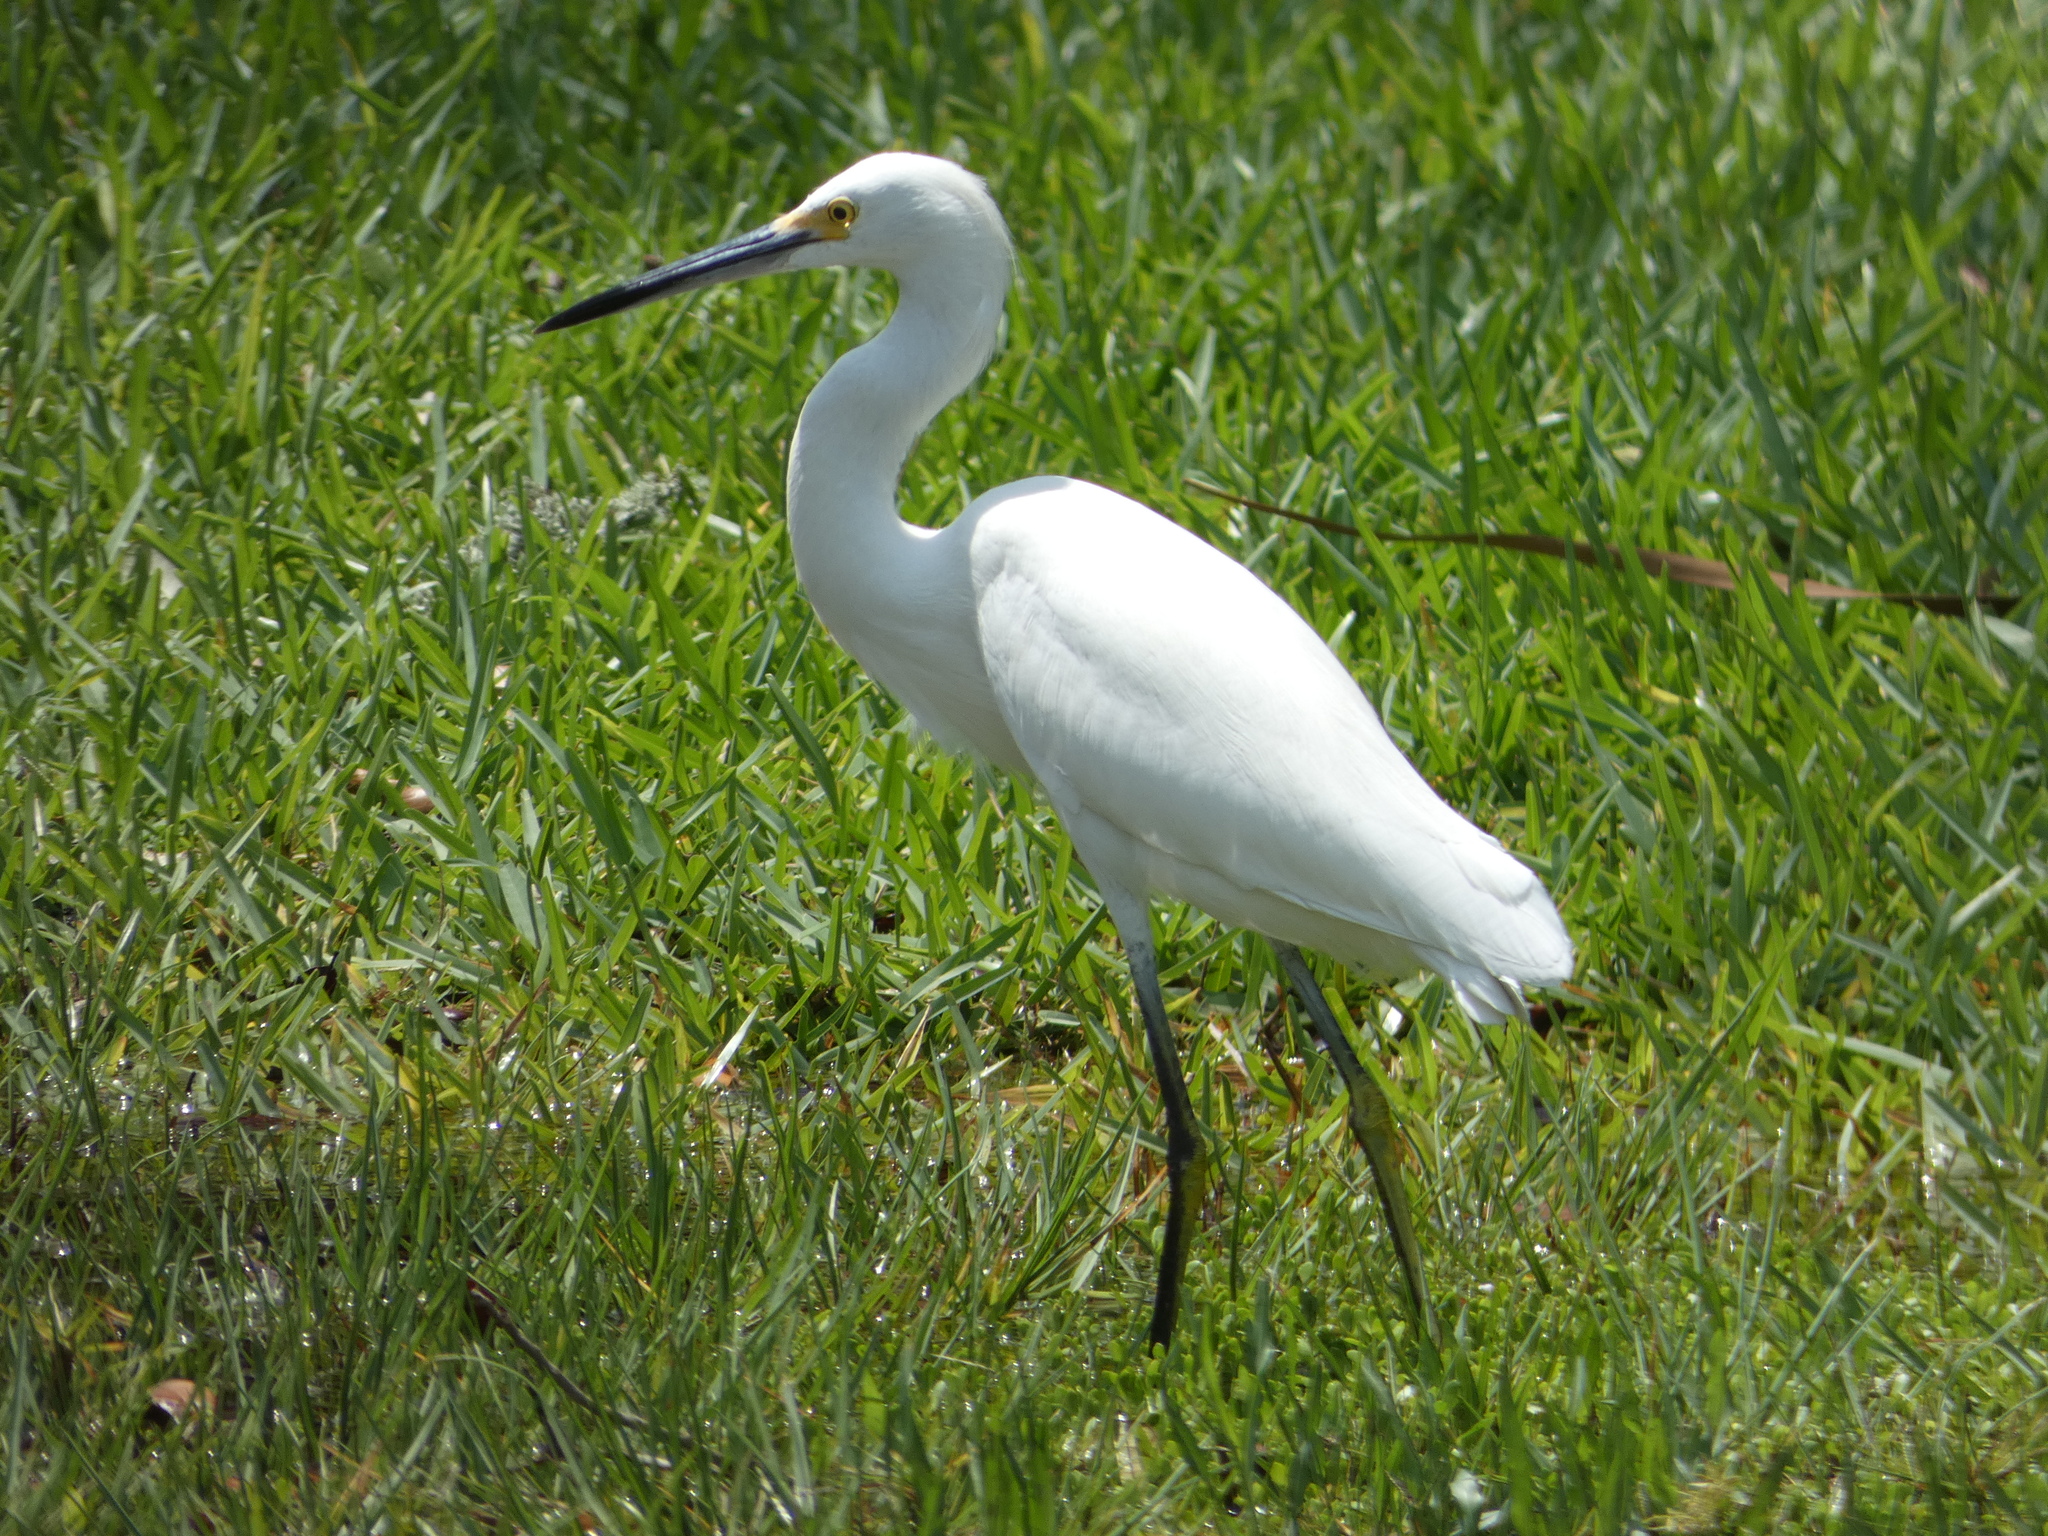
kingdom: Animalia
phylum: Chordata
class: Aves
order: Pelecaniformes
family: Ardeidae
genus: Egretta
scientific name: Egretta thula
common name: Snowy egret
